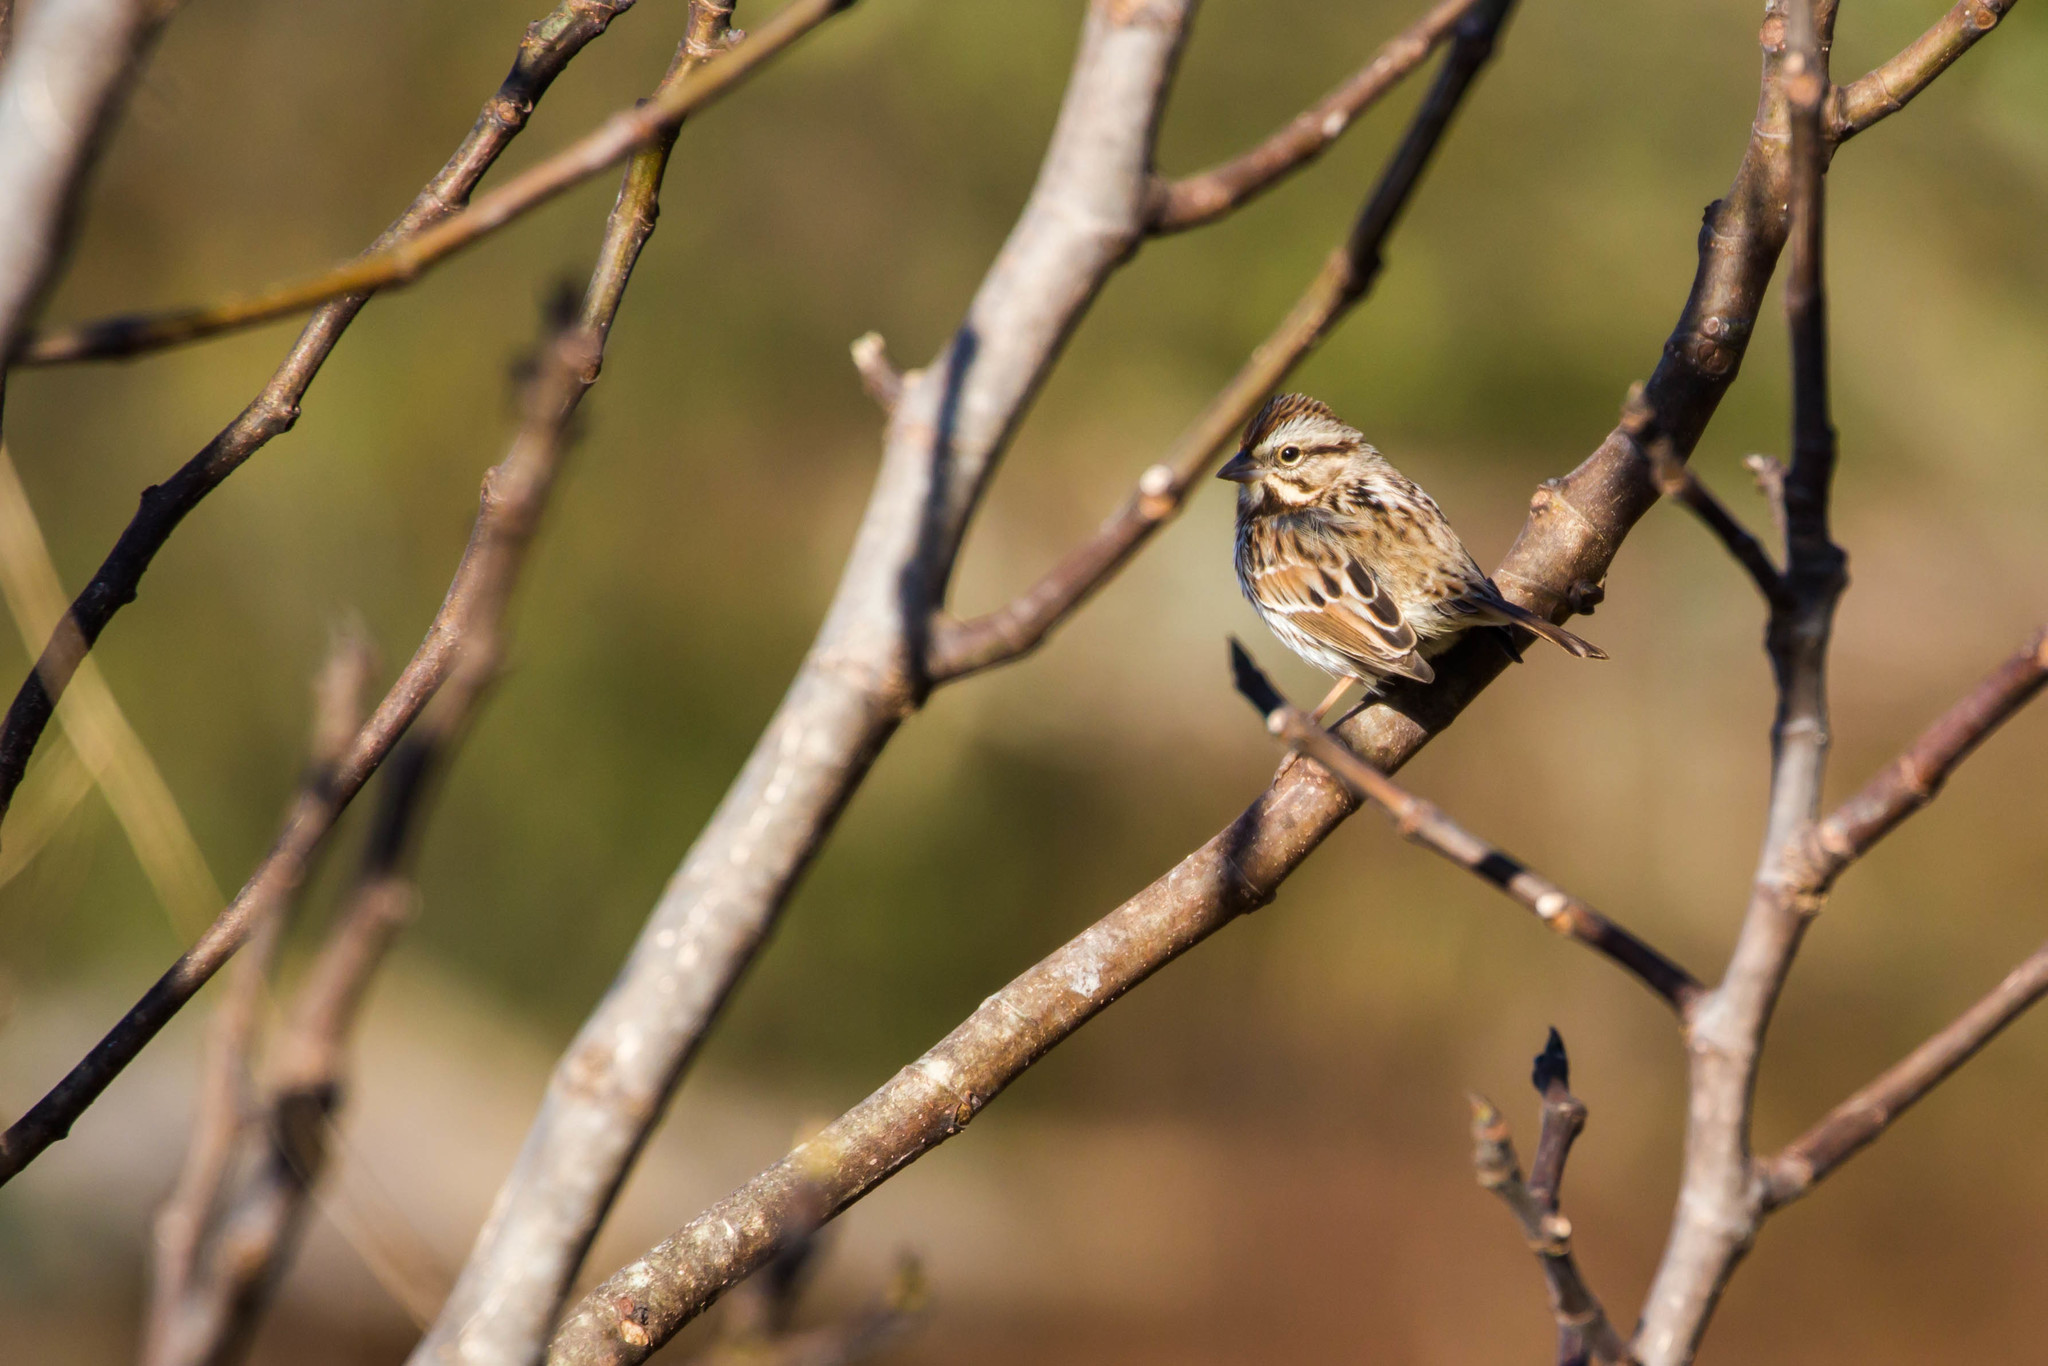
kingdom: Animalia
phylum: Chordata
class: Aves
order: Passeriformes
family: Passerellidae
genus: Melospiza
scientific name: Melospiza melodia
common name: Song sparrow
